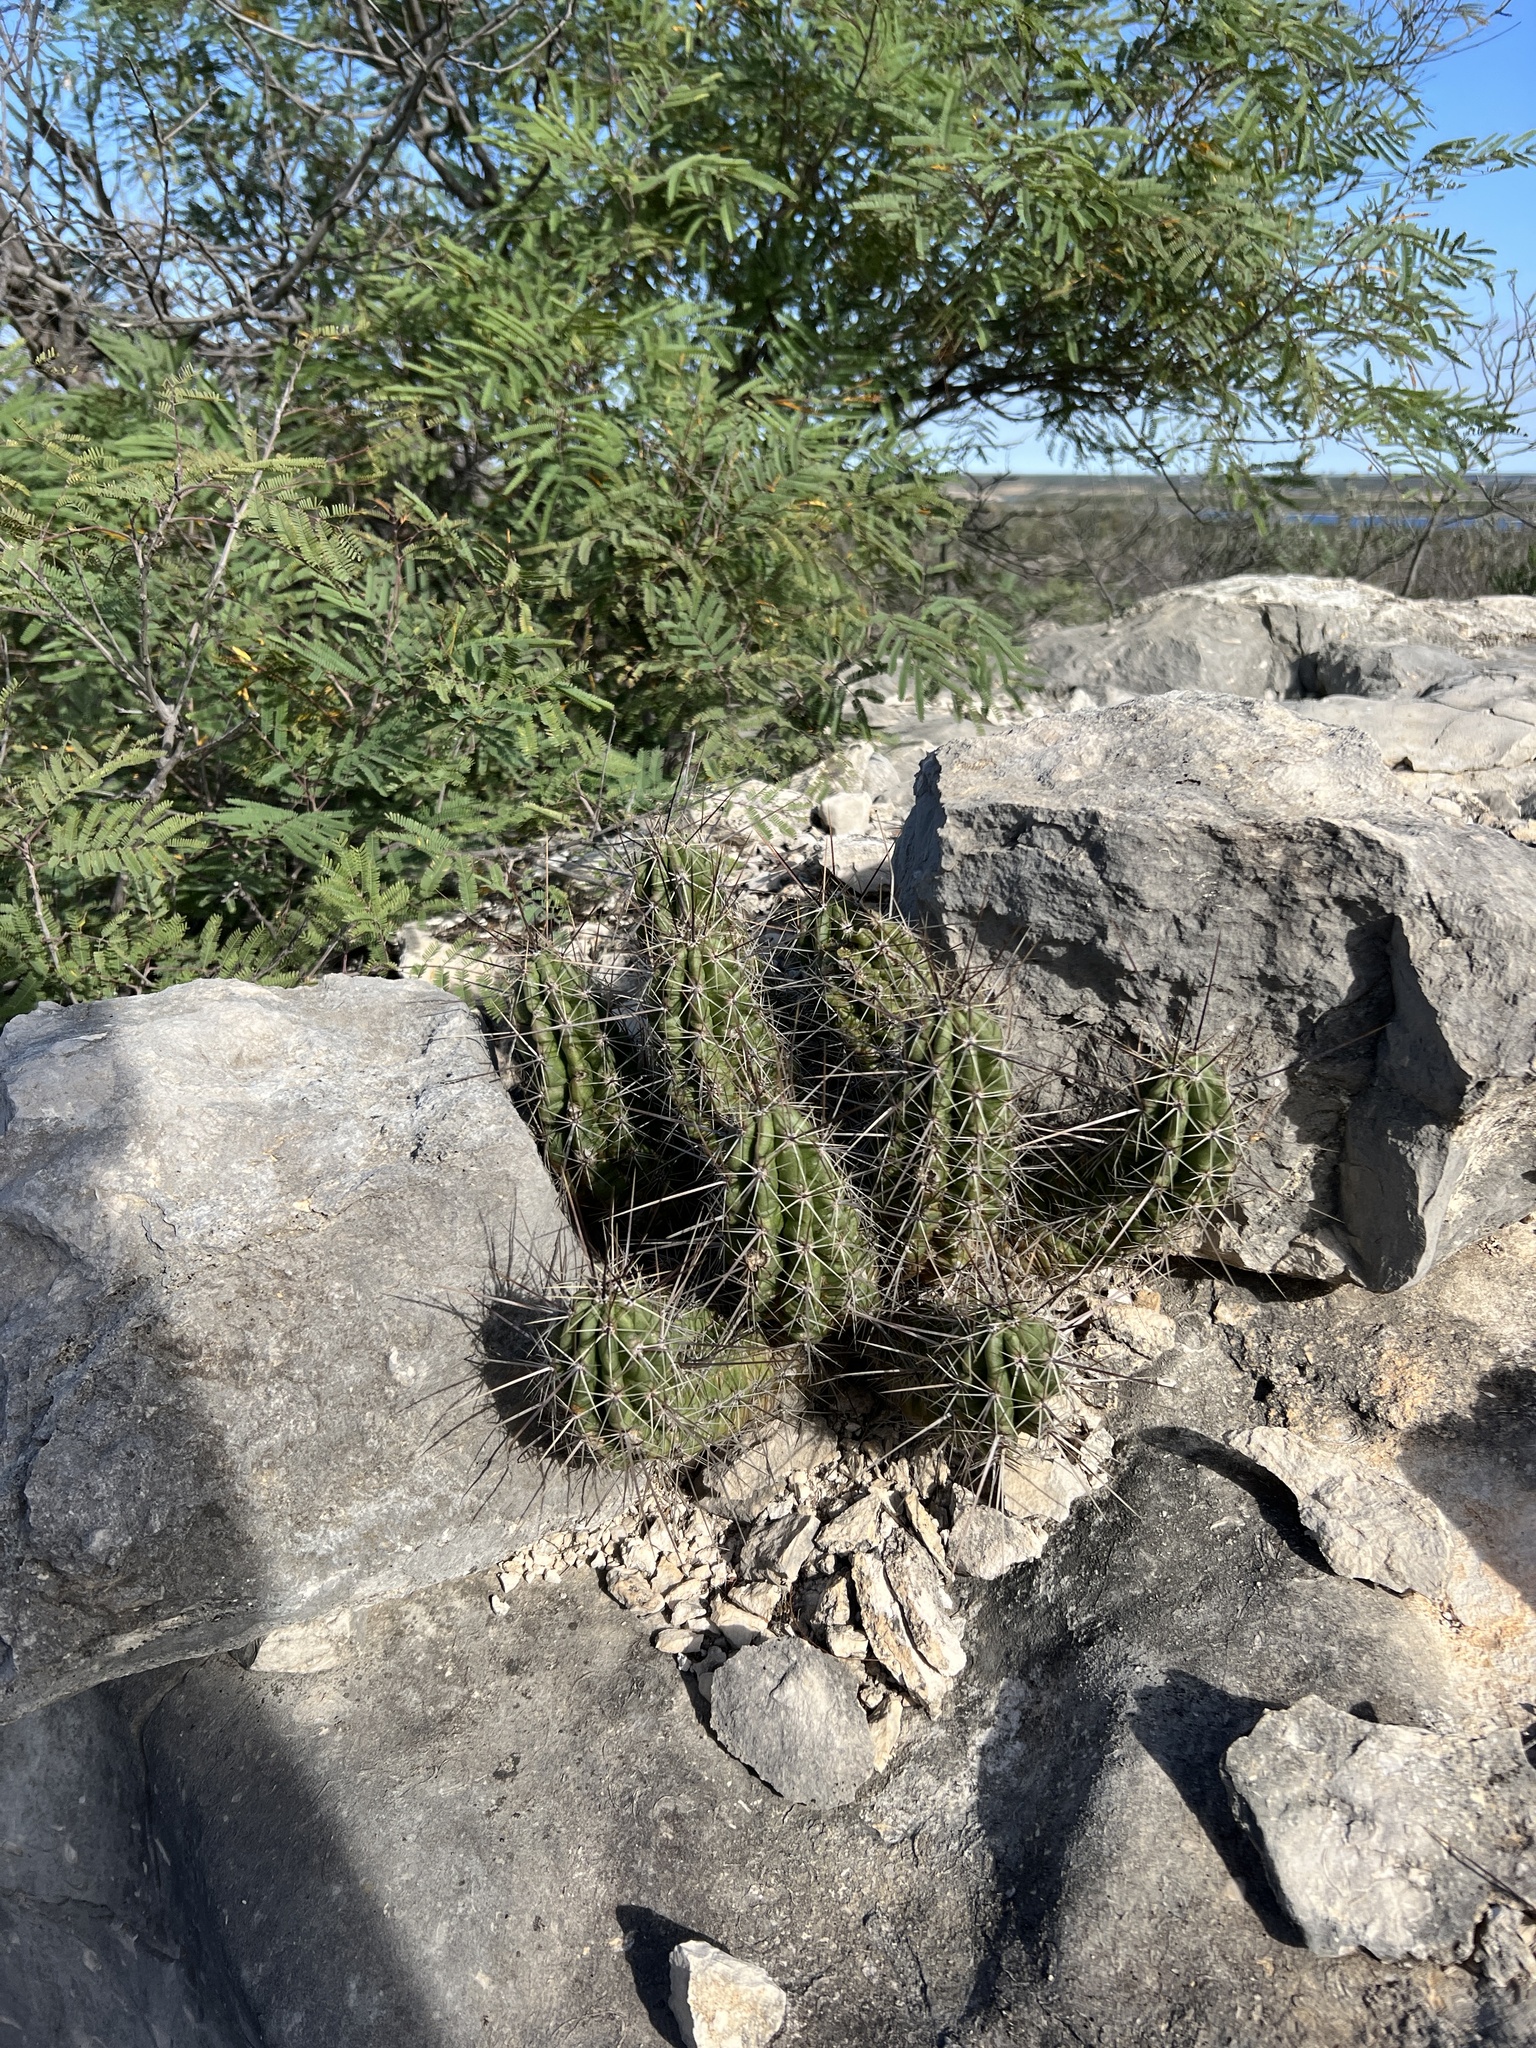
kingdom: Plantae
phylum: Tracheophyta
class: Magnoliopsida
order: Caryophyllales
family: Cactaceae
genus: Echinocereus
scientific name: Echinocereus enneacanthus
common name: Pitaya
